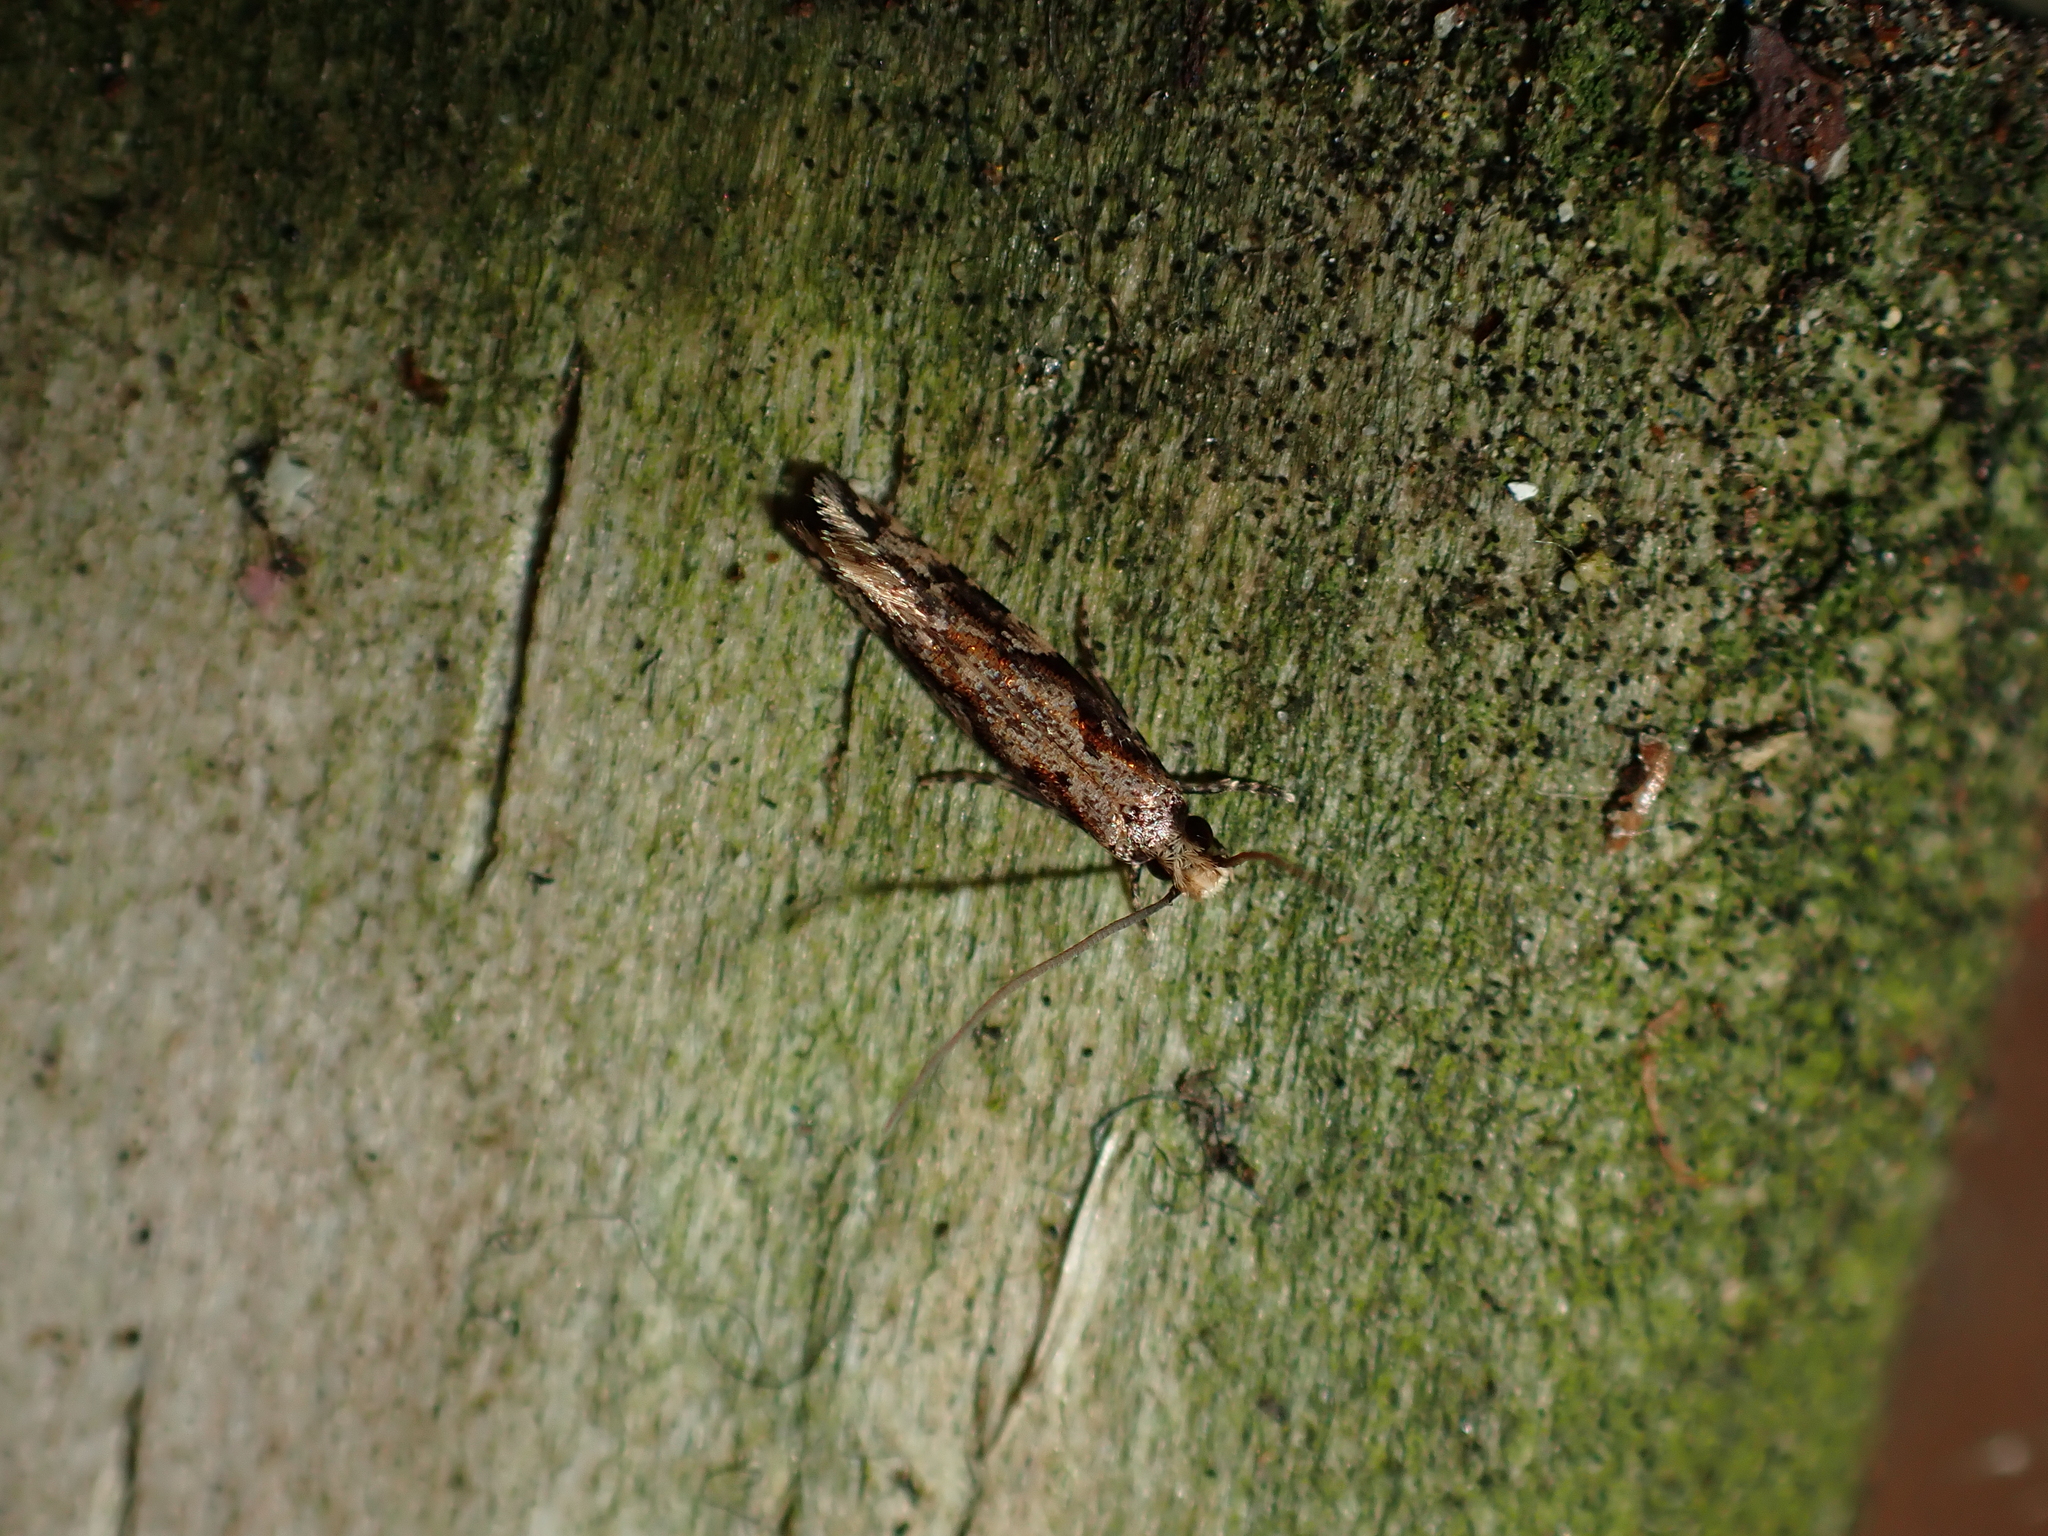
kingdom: Animalia
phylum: Arthropoda
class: Insecta
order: Lepidoptera
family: Tineidae
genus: Crypsitricha
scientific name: Crypsitricha agriopa
